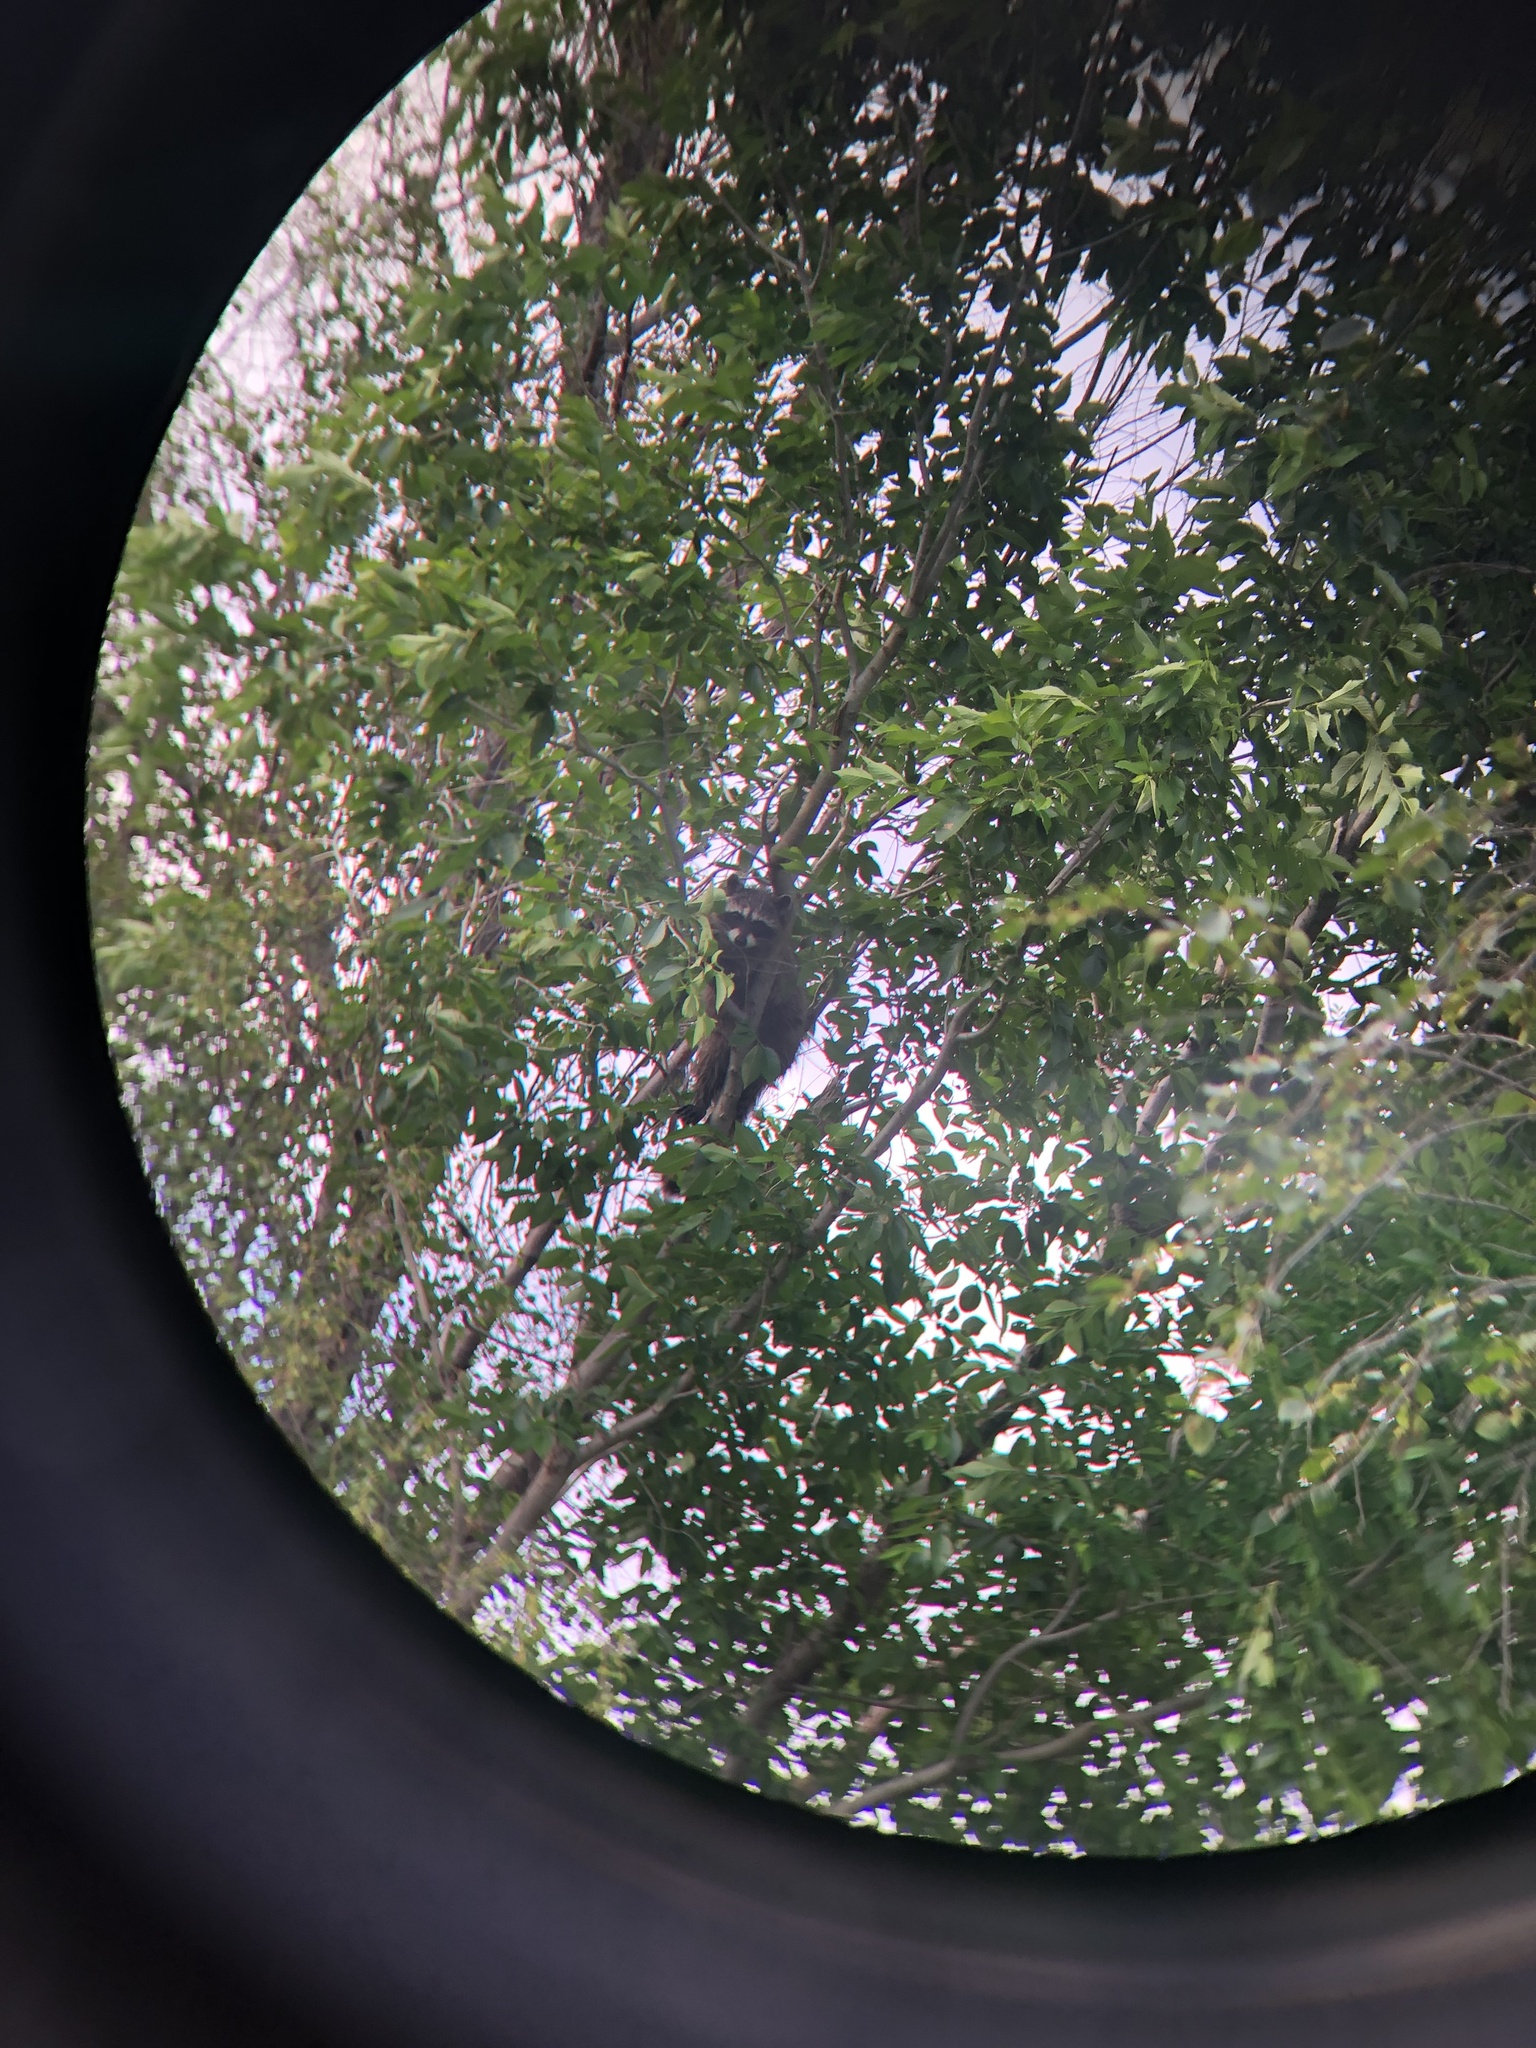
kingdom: Animalia
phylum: Chordata
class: Mammalia
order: Carnivora
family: Procyonidae
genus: Procyon
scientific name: Procyon lotor
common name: Raccoon
